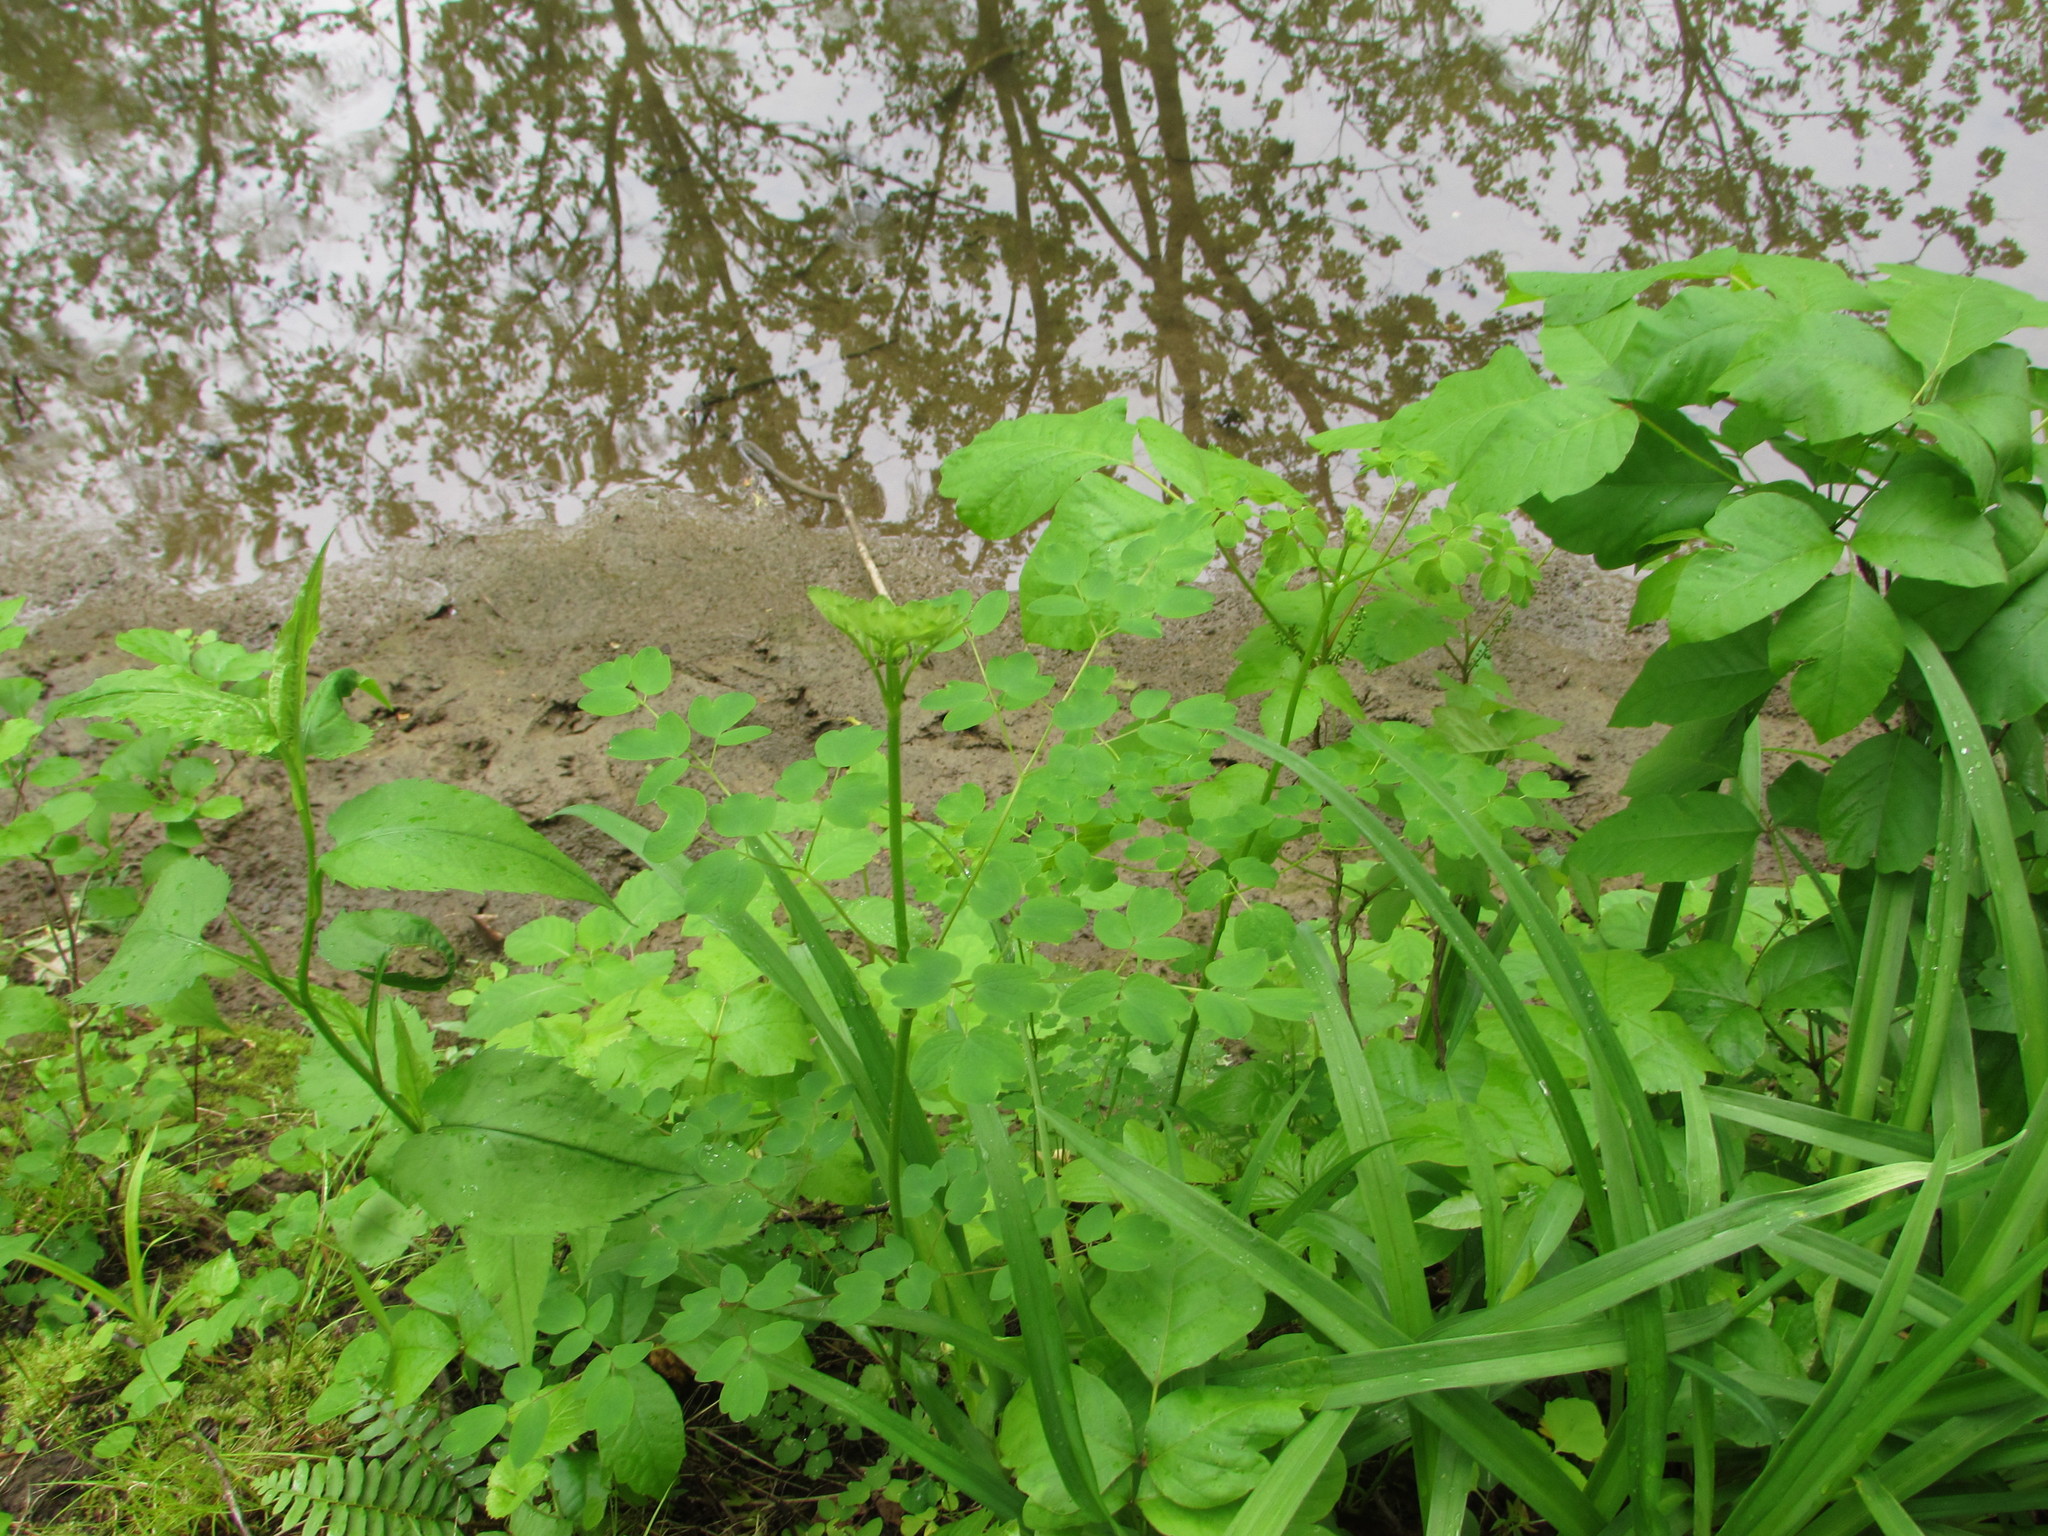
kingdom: Plantae
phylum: Tracheophyta
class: Magnoliopsida
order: Ranunculales
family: Ranunculaceae
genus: Thalictrum
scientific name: Thalictrum dioicum
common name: Early meadow-rue
